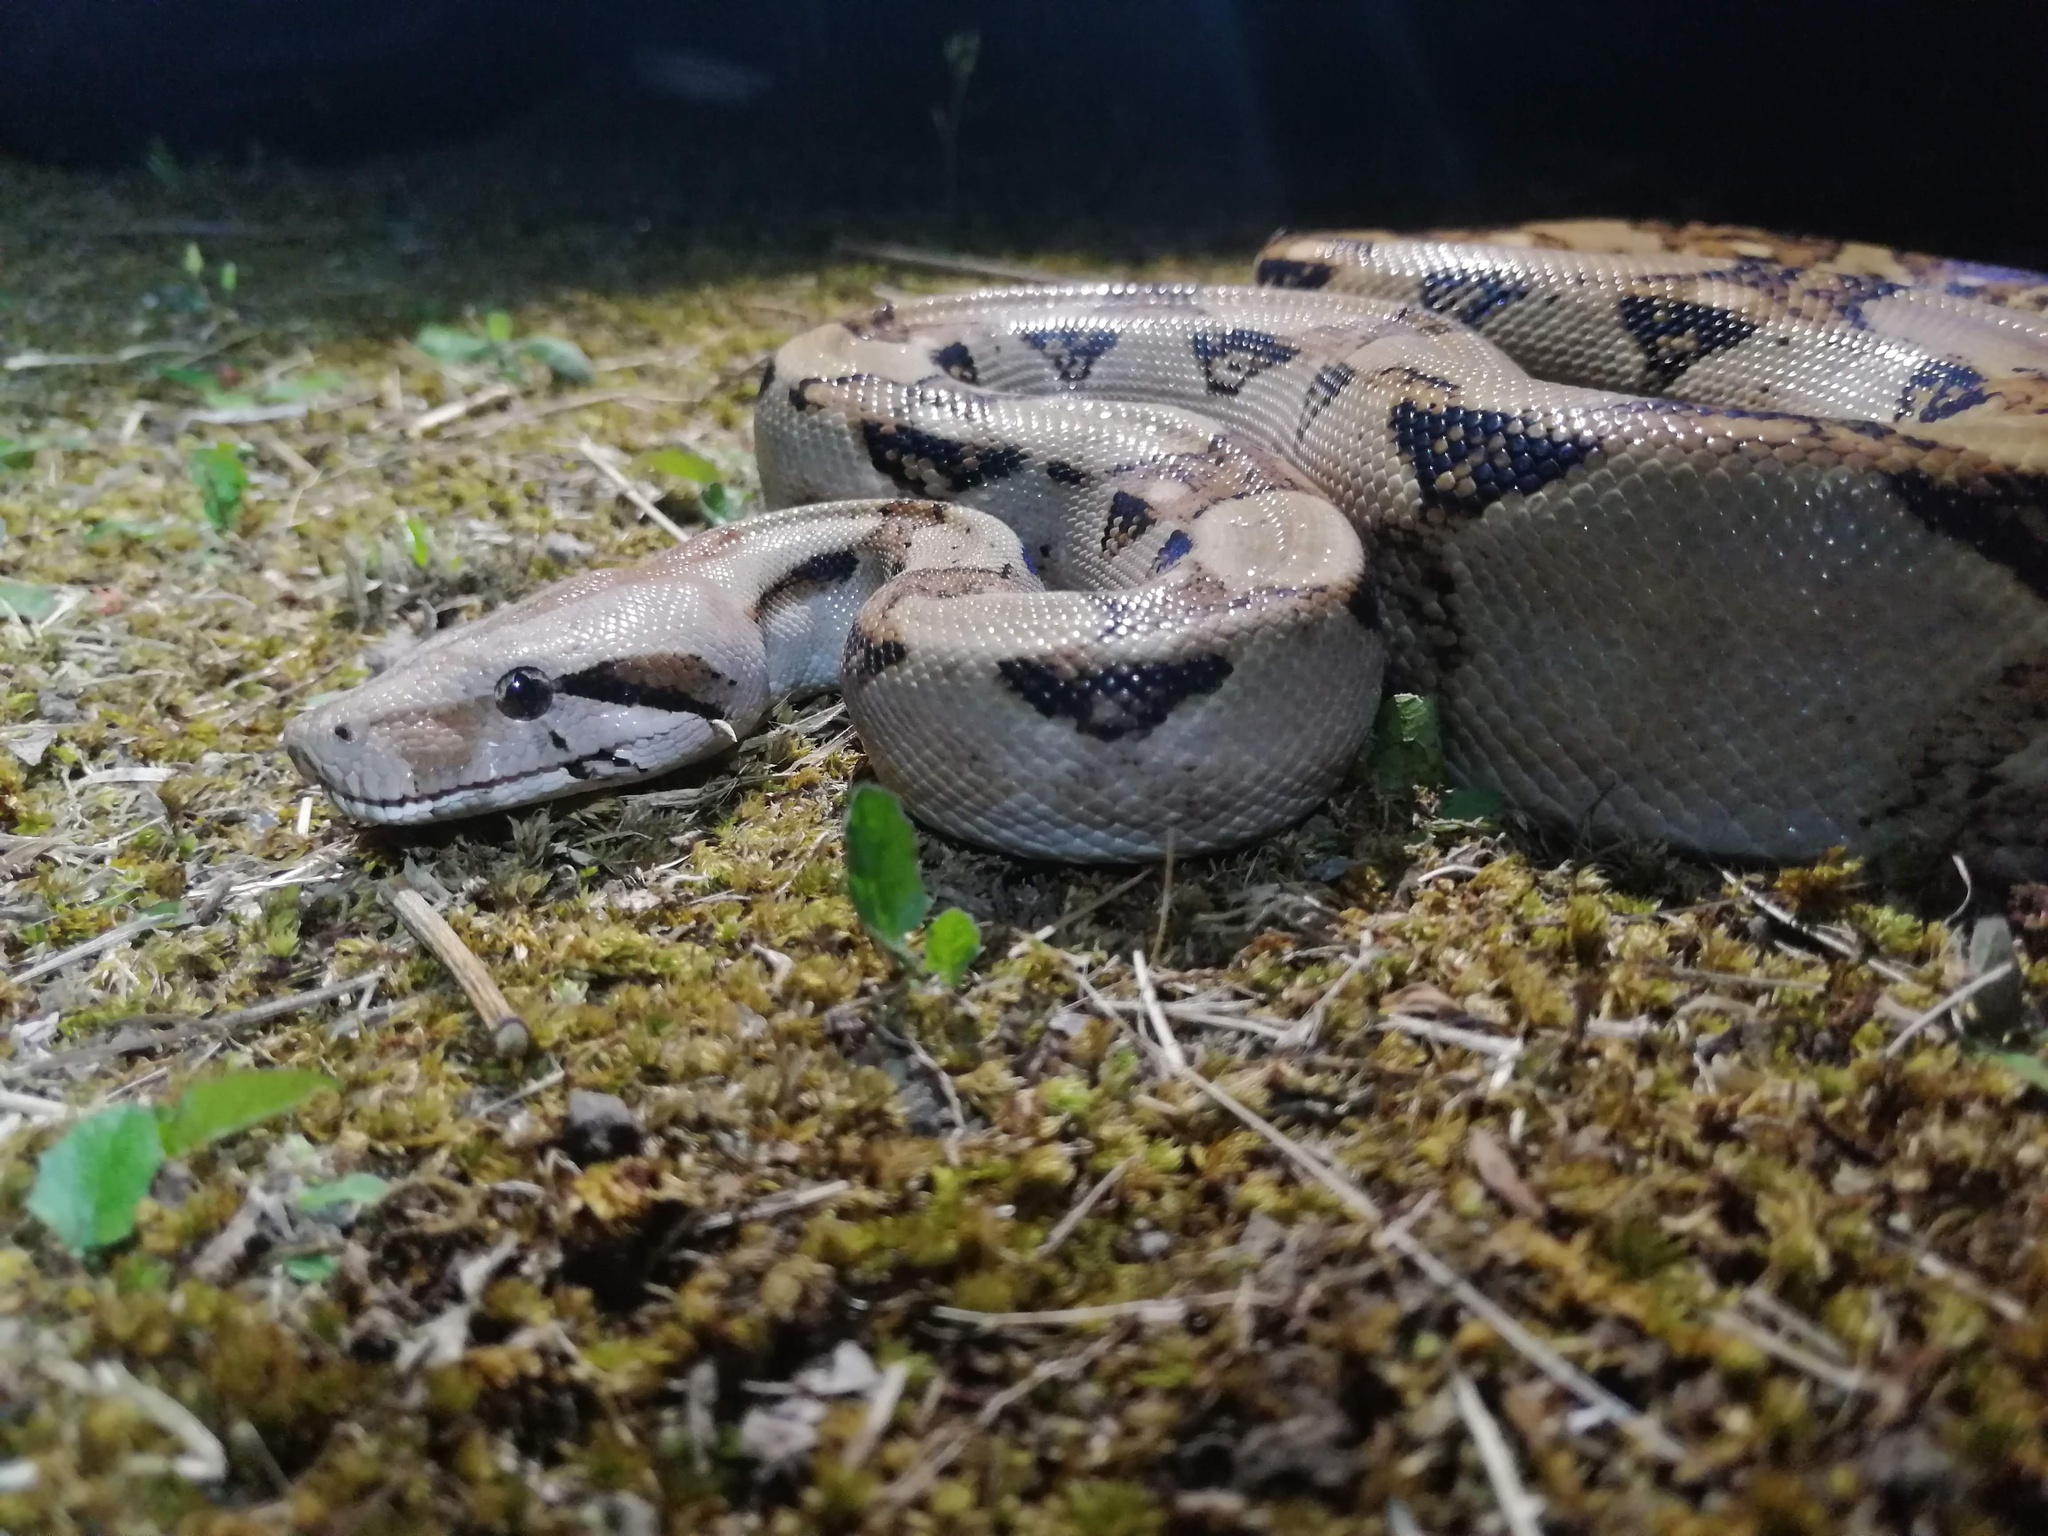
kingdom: Animalia
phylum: Chordata
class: Squamata
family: Boidae
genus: Boa
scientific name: Boa imperator
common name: Central american boa
